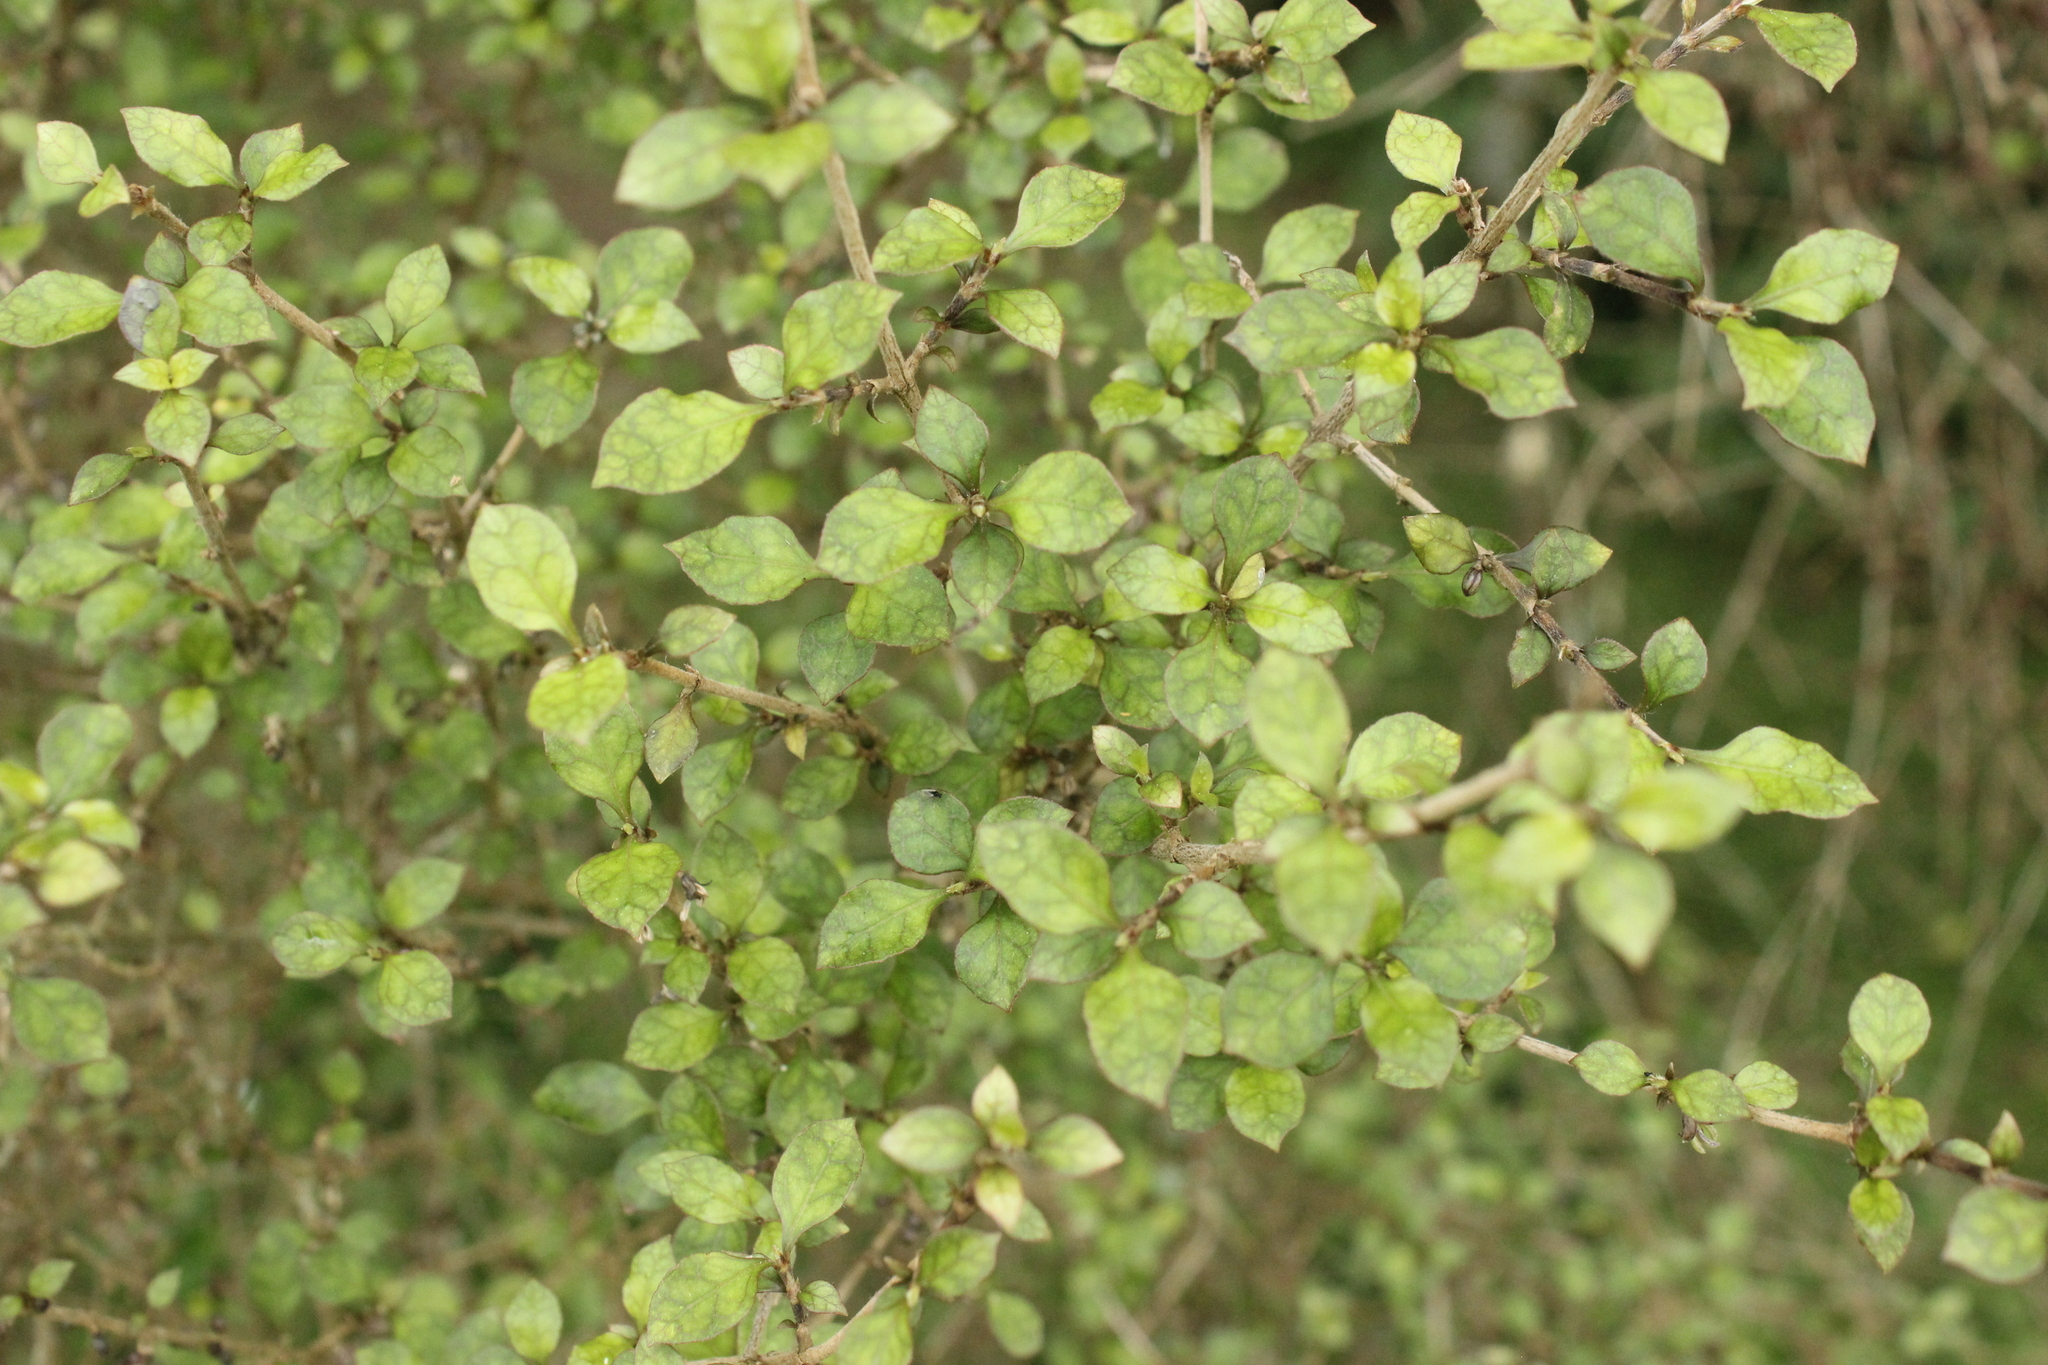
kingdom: Plantae
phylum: Tracheophyta
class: Magnoliopsida
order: Gentianales
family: Rubiaceae
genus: Coprosma
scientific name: Coprosma areolata
